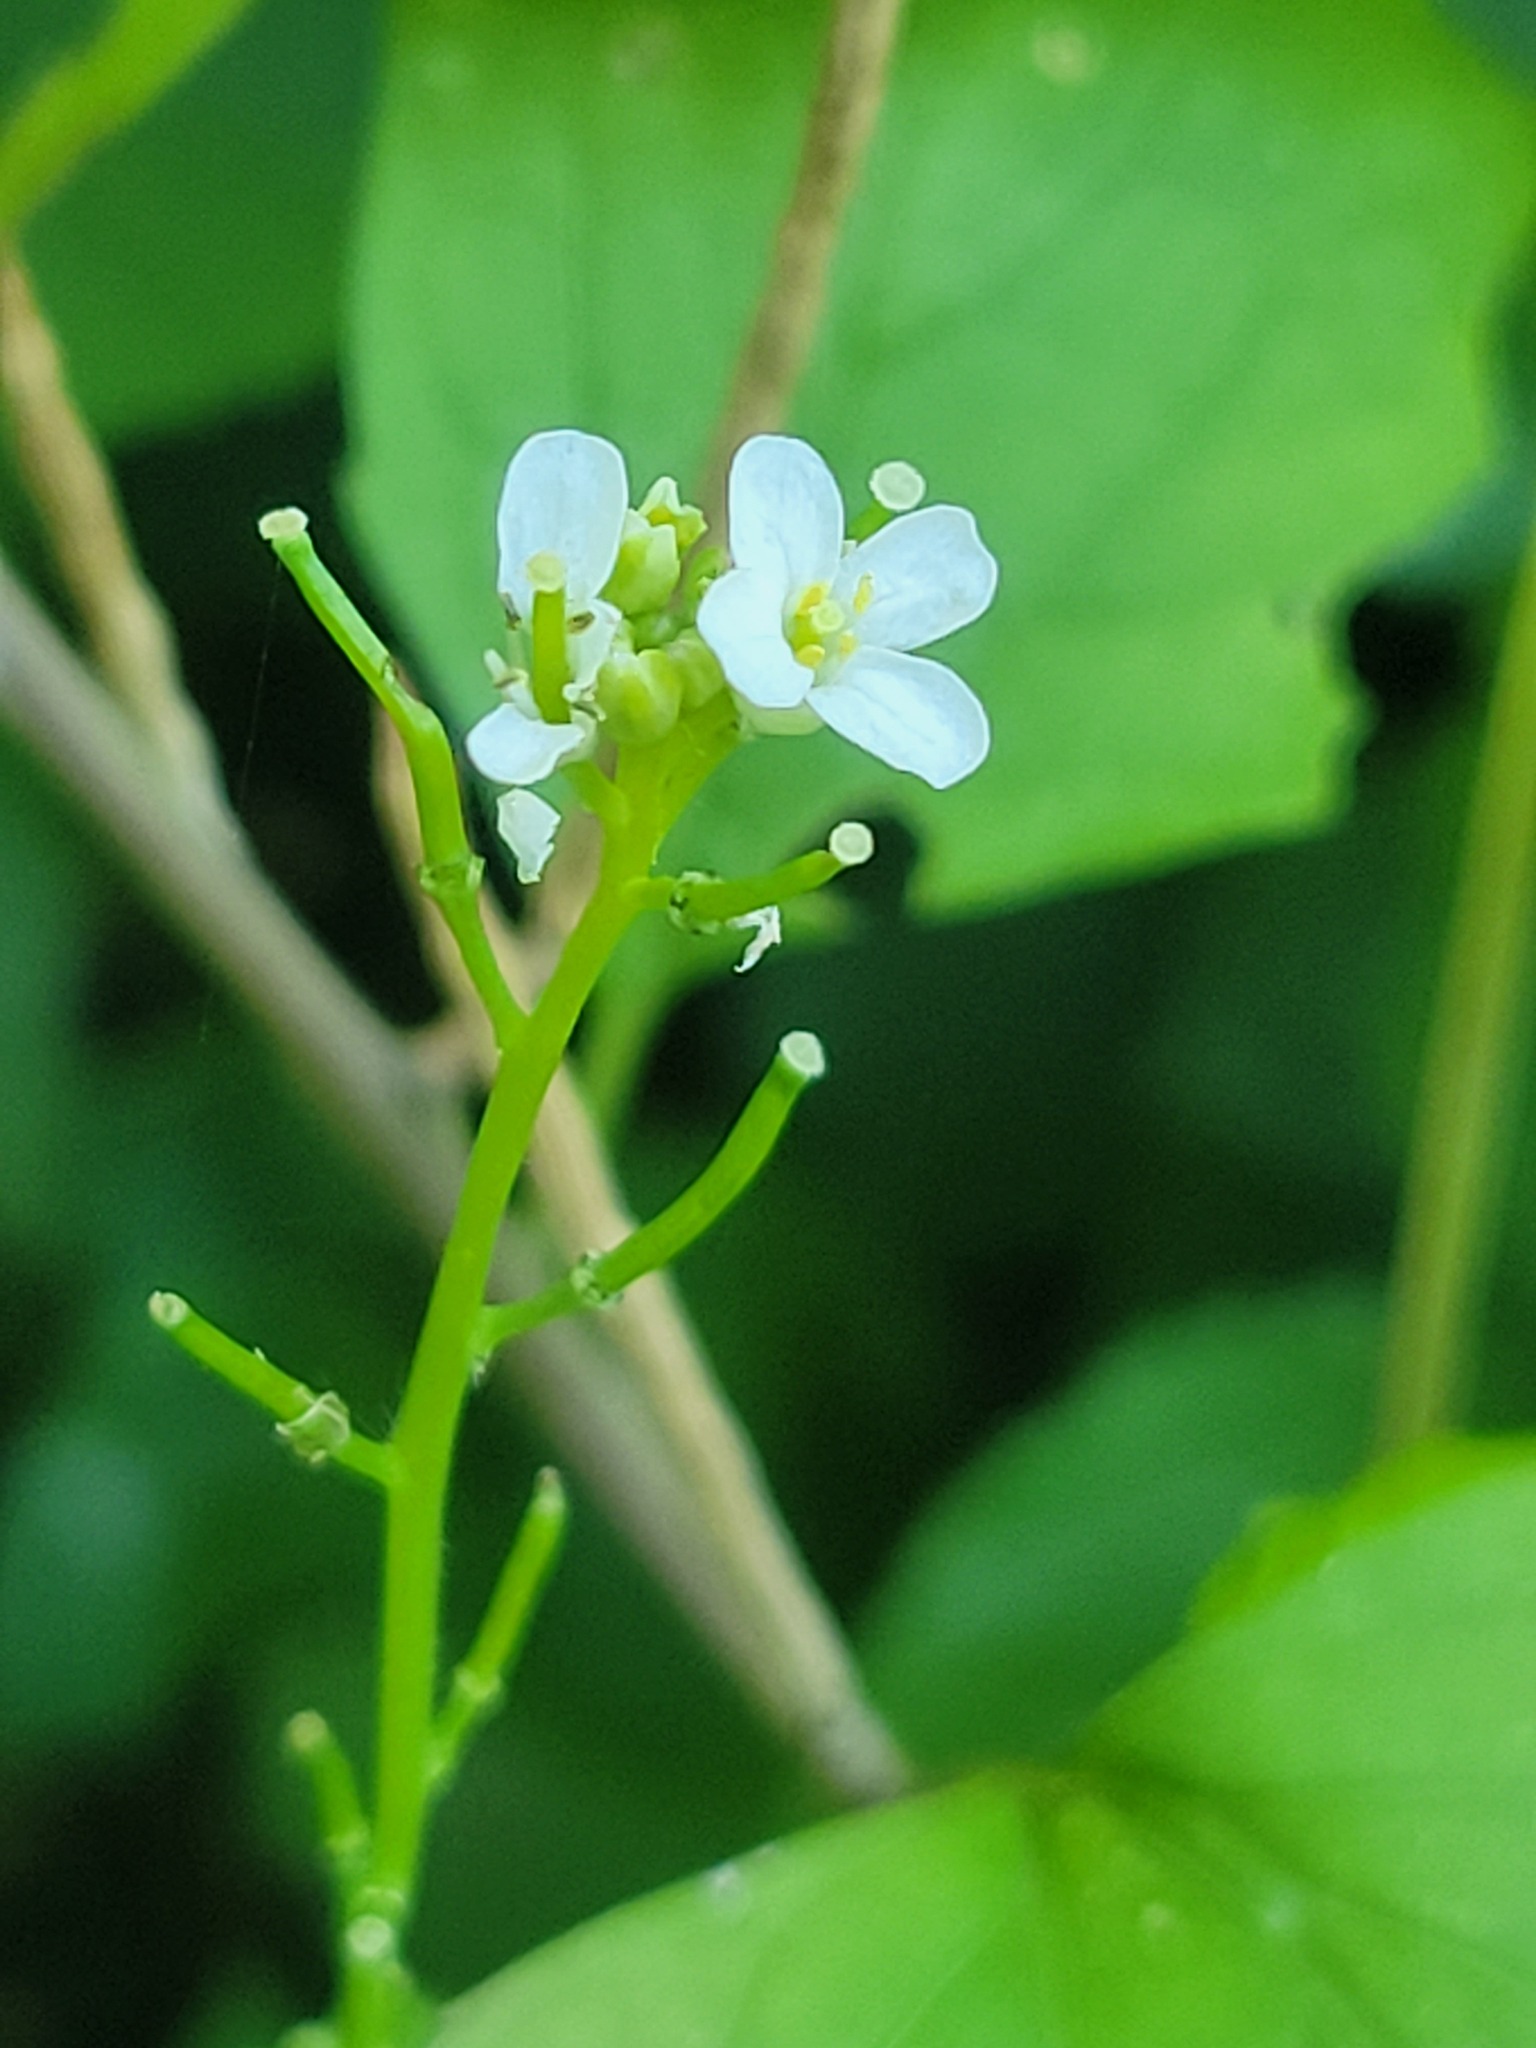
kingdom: Plantae
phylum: Tracheophyta
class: Magnoliopsida
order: Brassicales
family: Brassicaceae
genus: Alliaria
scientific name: Alliaria petiolata
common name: Garlic mustard
